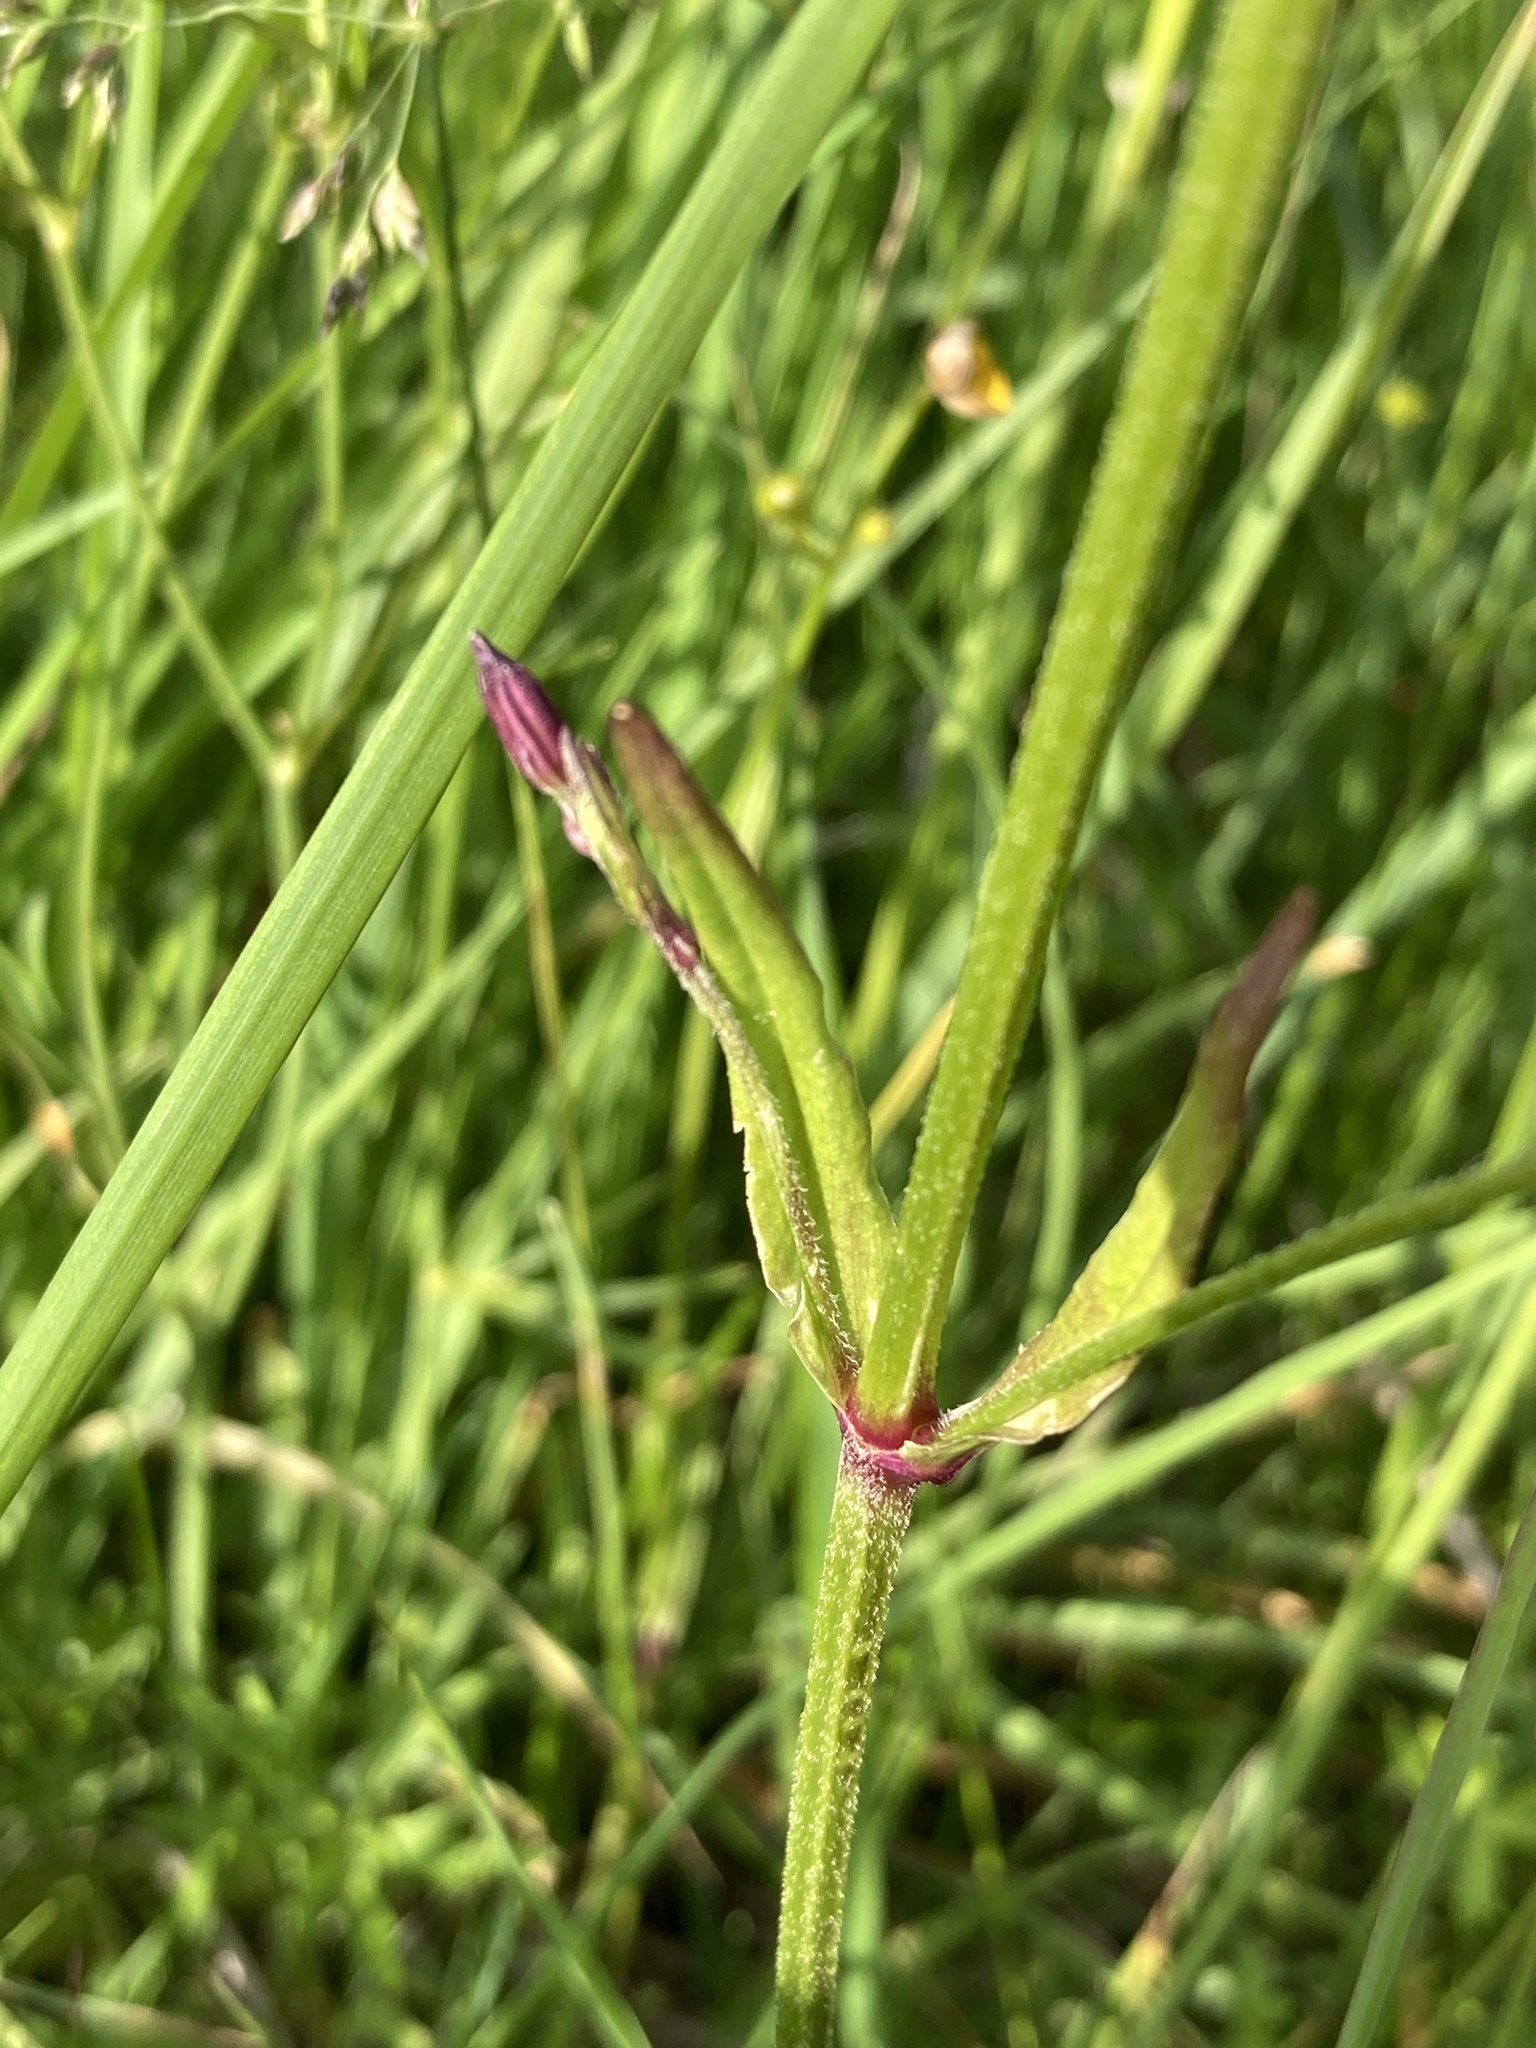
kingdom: Plantae
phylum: Tracheophyta
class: Magnoliopsida
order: Caryophyllales
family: Caryophyllaceae
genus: Silene
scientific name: Silene flos-cuculi
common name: Ragged-robin
